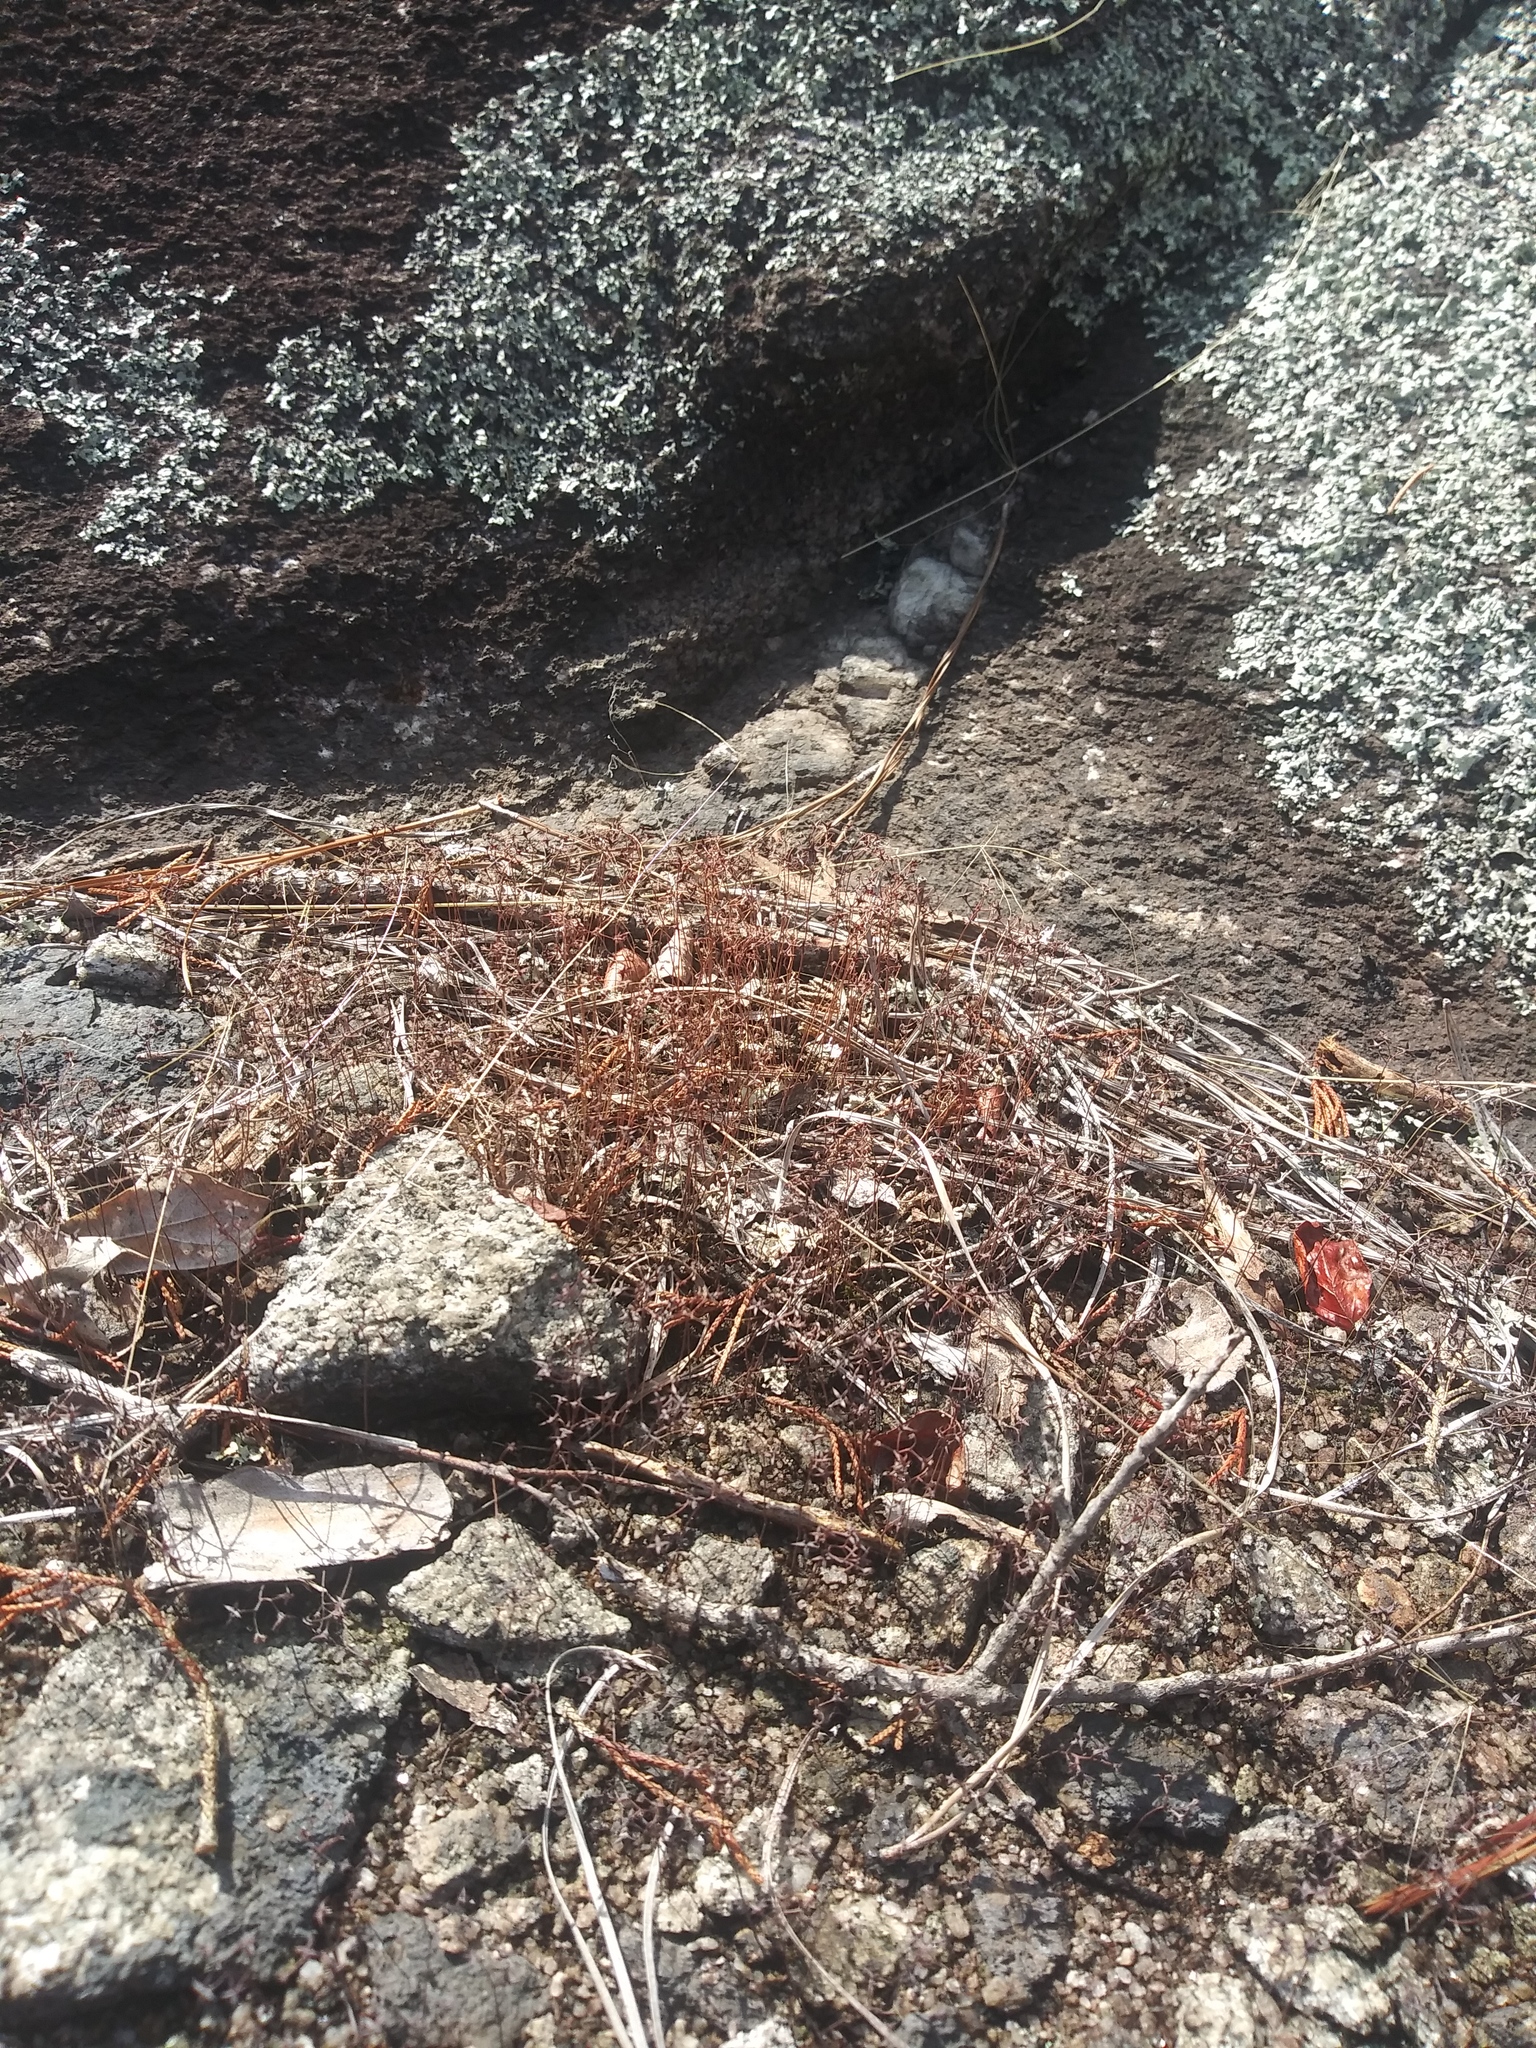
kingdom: Plantae
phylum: Tracheophyta
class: Magnoliopsida
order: Saxifragales
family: Crassulaceae
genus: Sedum
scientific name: Sedum smallii
